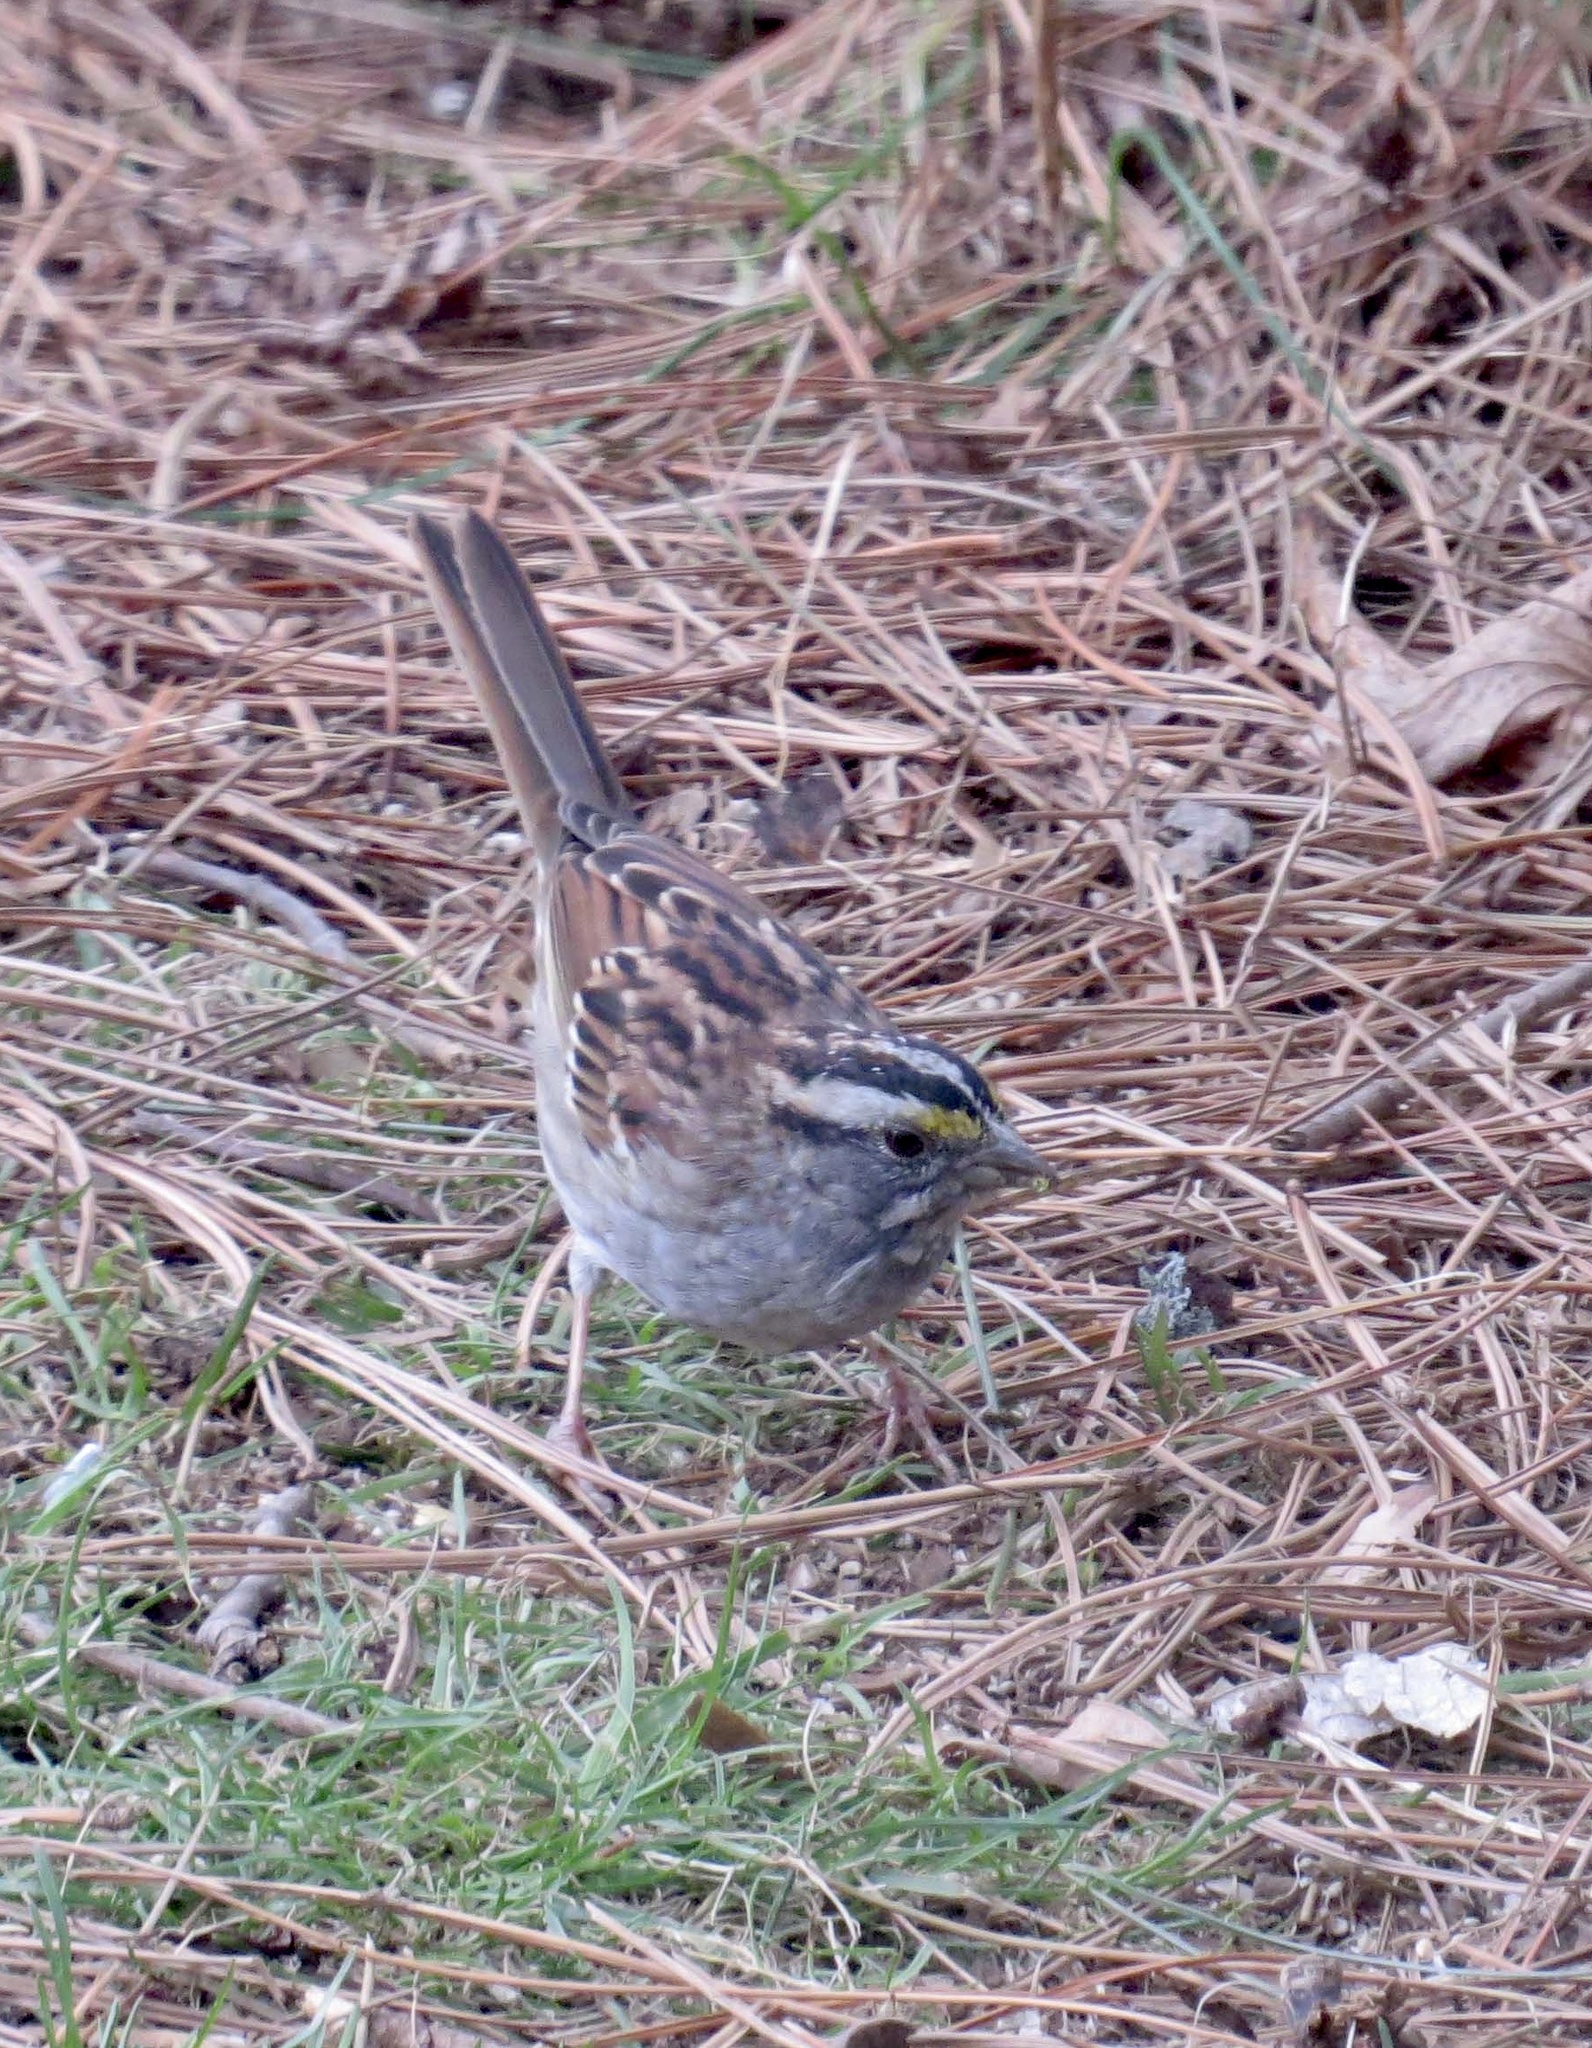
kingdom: Animalia
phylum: Chordata
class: Aves
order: Passeriformes
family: Passerellidae
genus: Zonotrichia
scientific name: Zonotrichia albicollis
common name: White-throated sparrow
